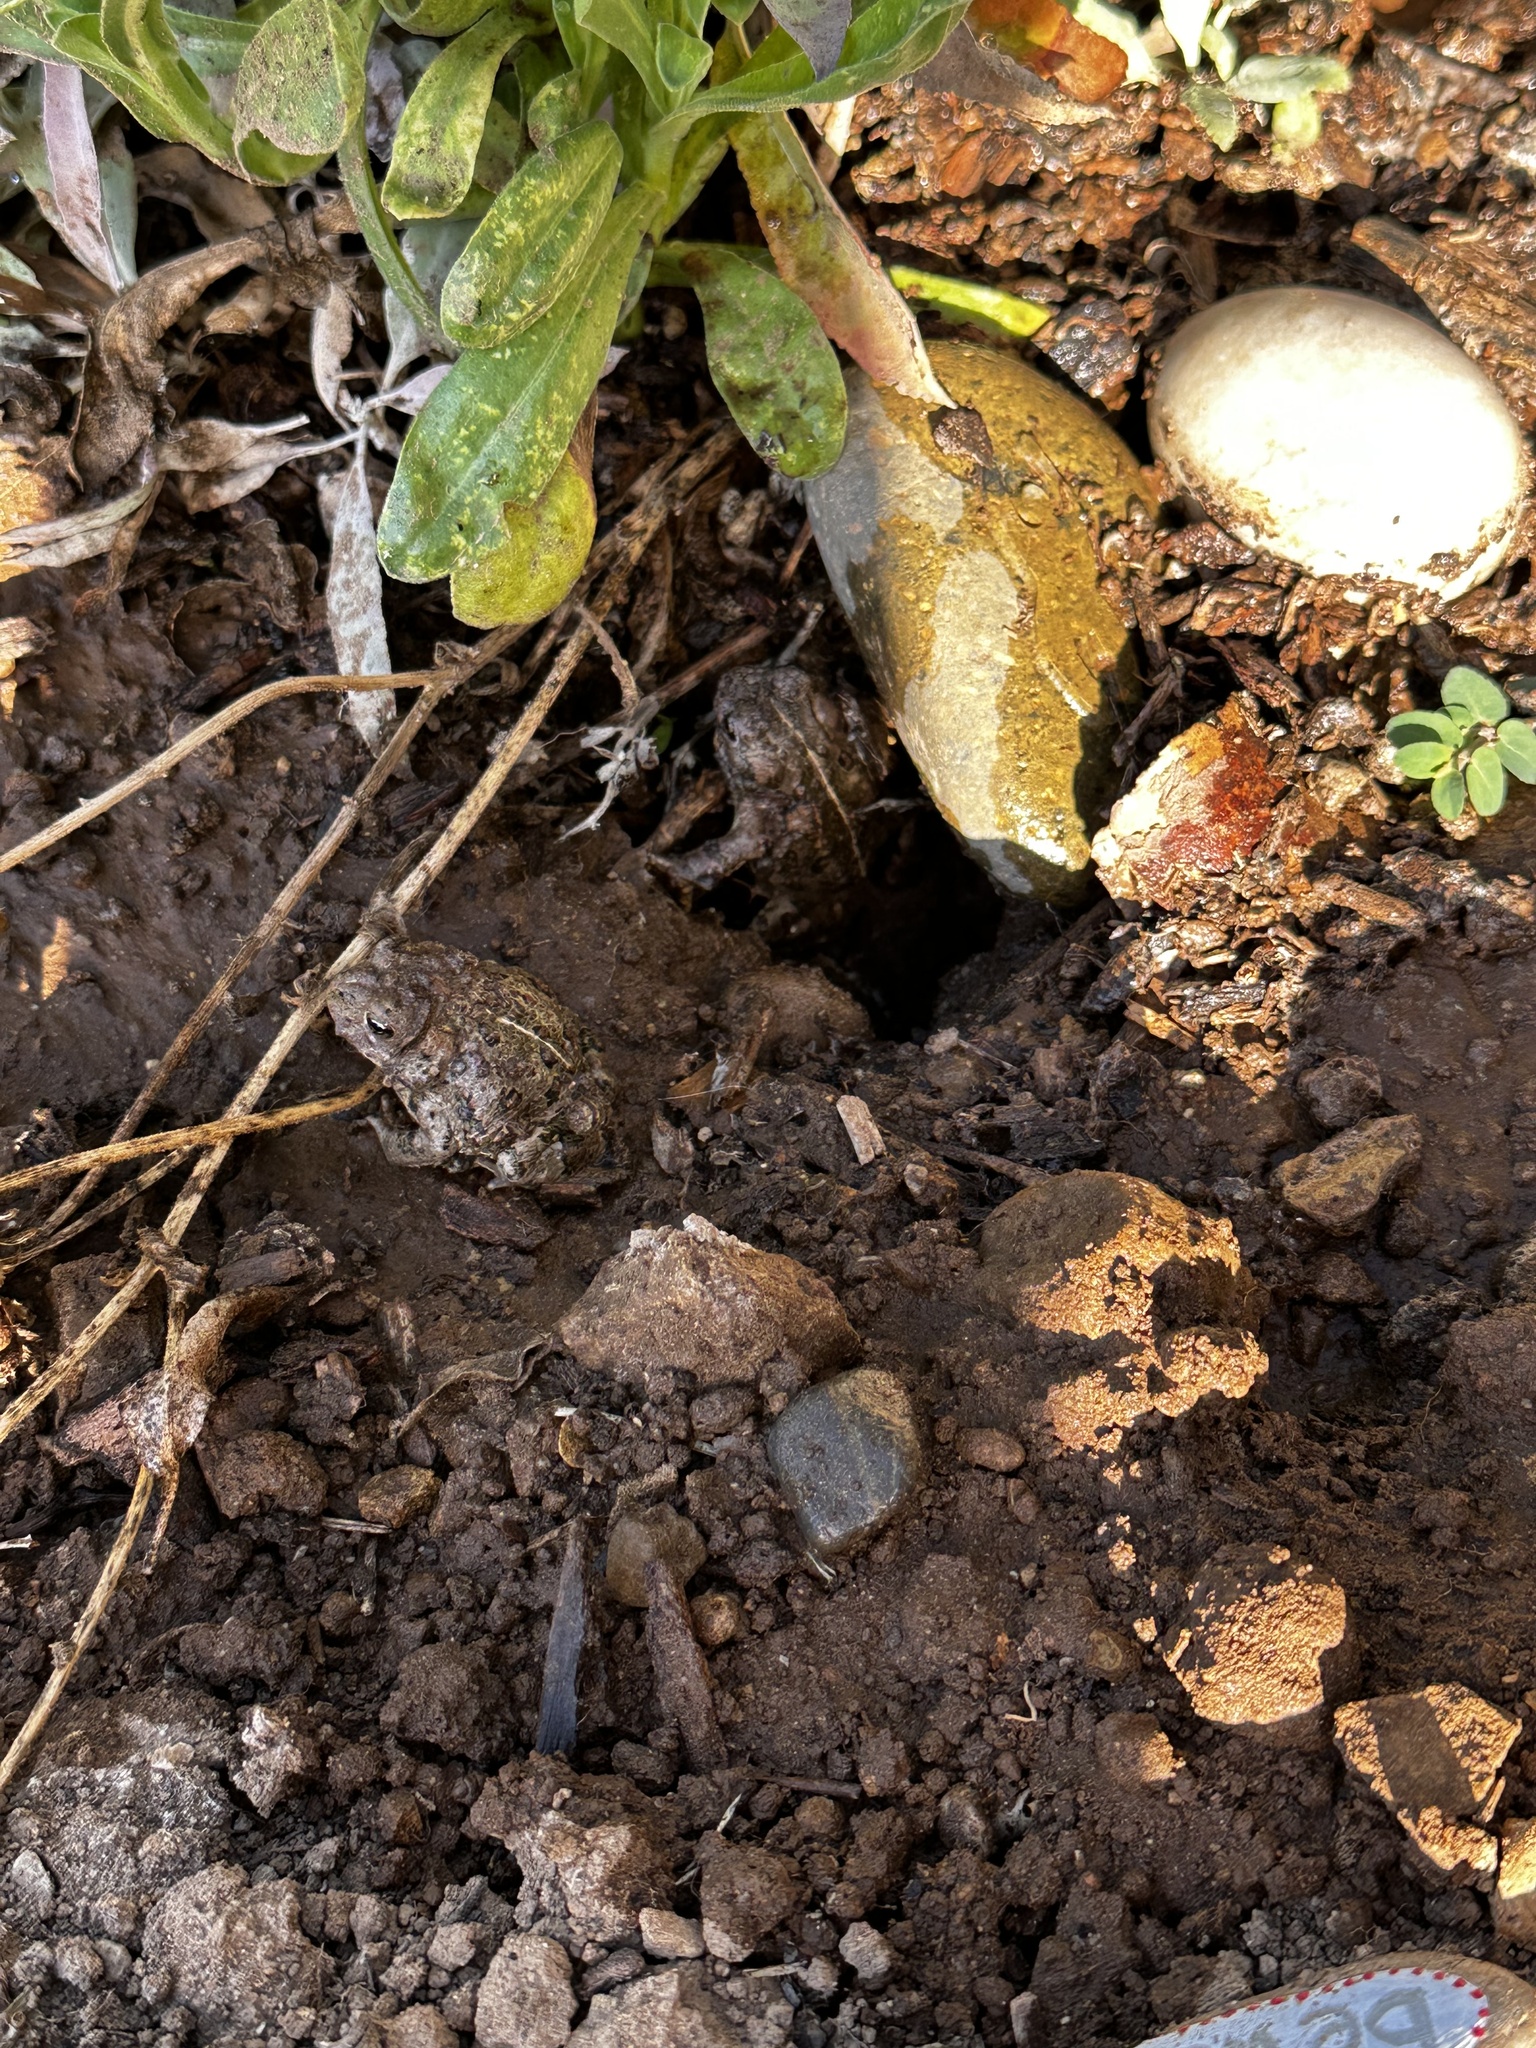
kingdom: Animalia
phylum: Chordata
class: Amphibia
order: Anura
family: Bufonidae
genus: Anaxyrus
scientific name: Anaxyrus boreas
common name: Western toad
